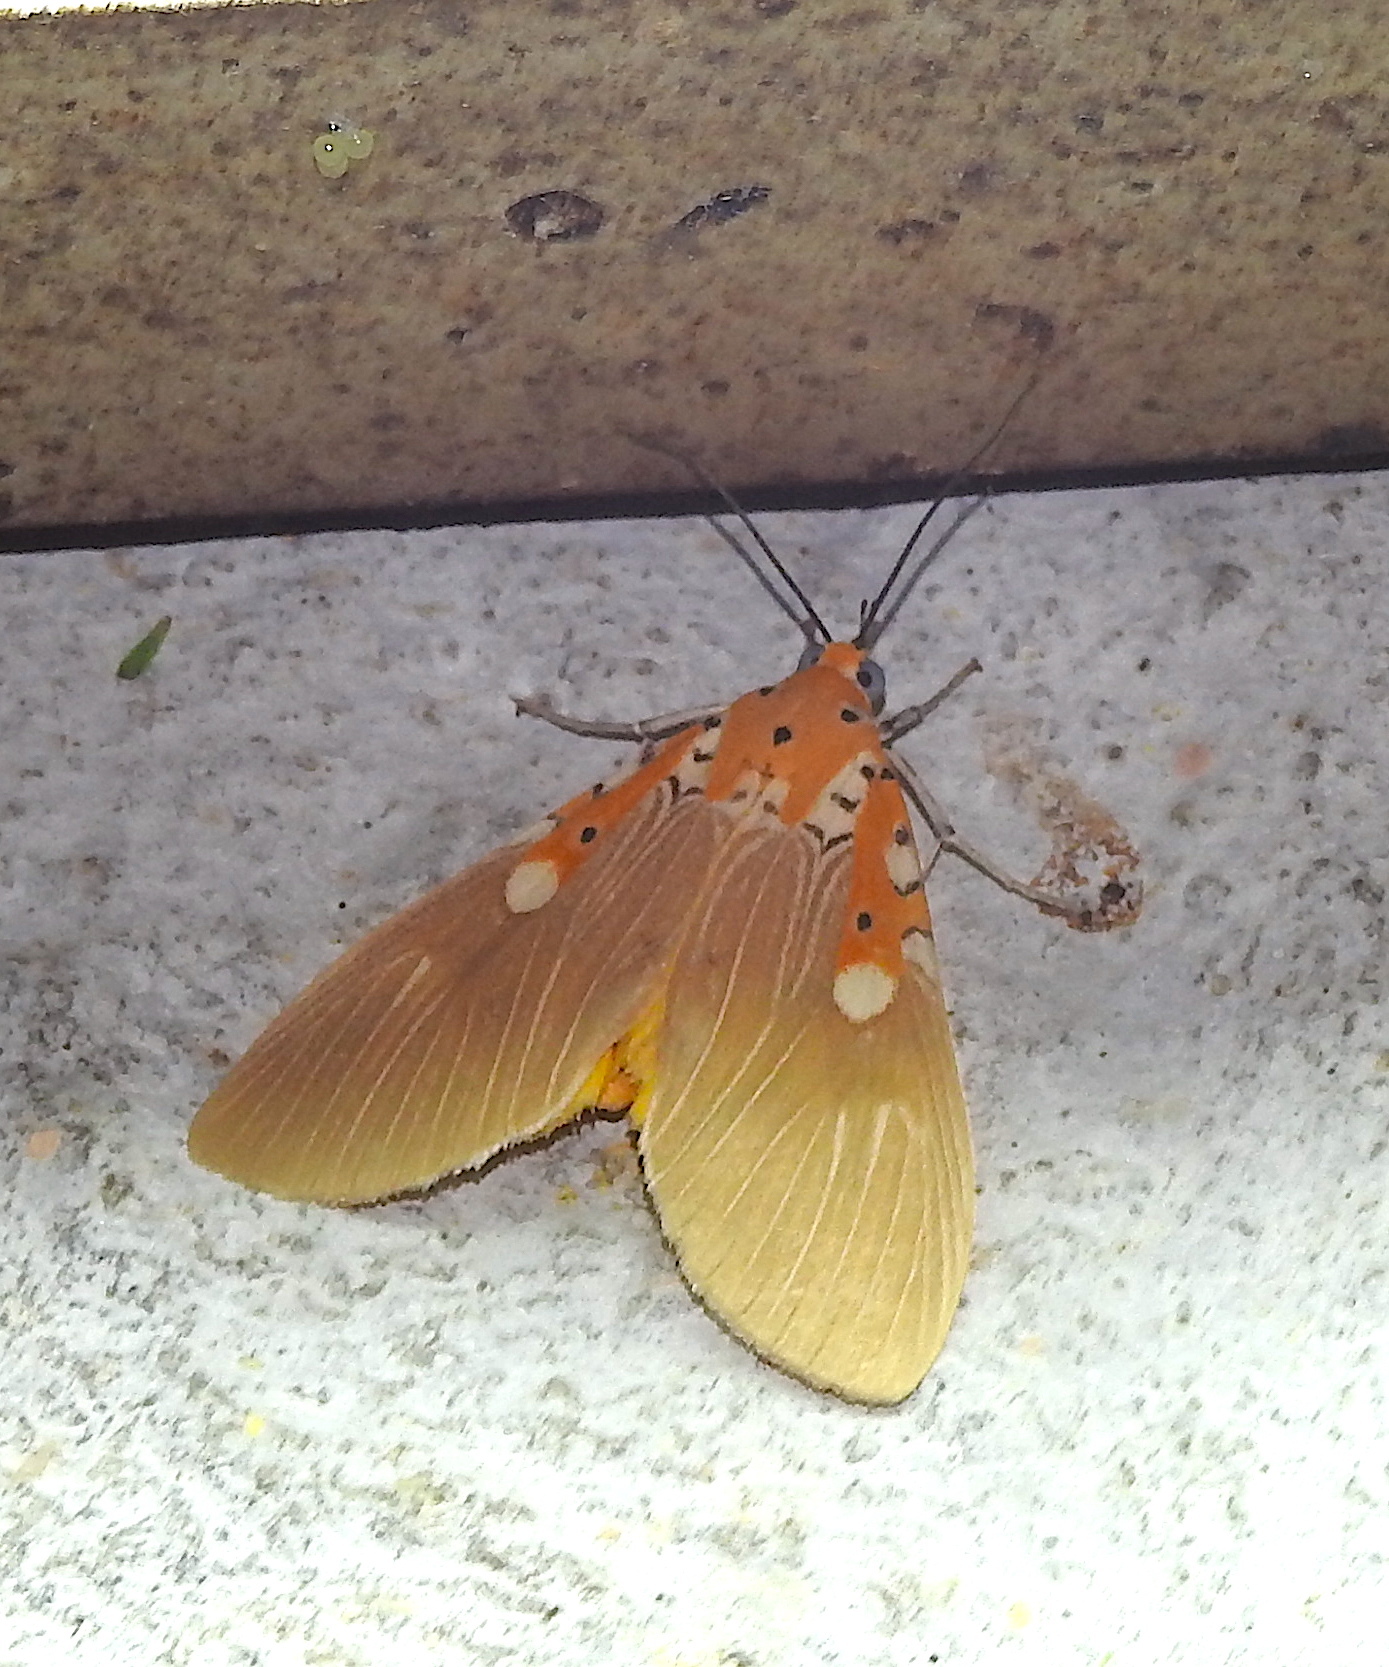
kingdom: Animalia
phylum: Arthropoda
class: Insecta
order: Lepidoptera
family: Erebidae
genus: Asota
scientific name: Asota ficus
